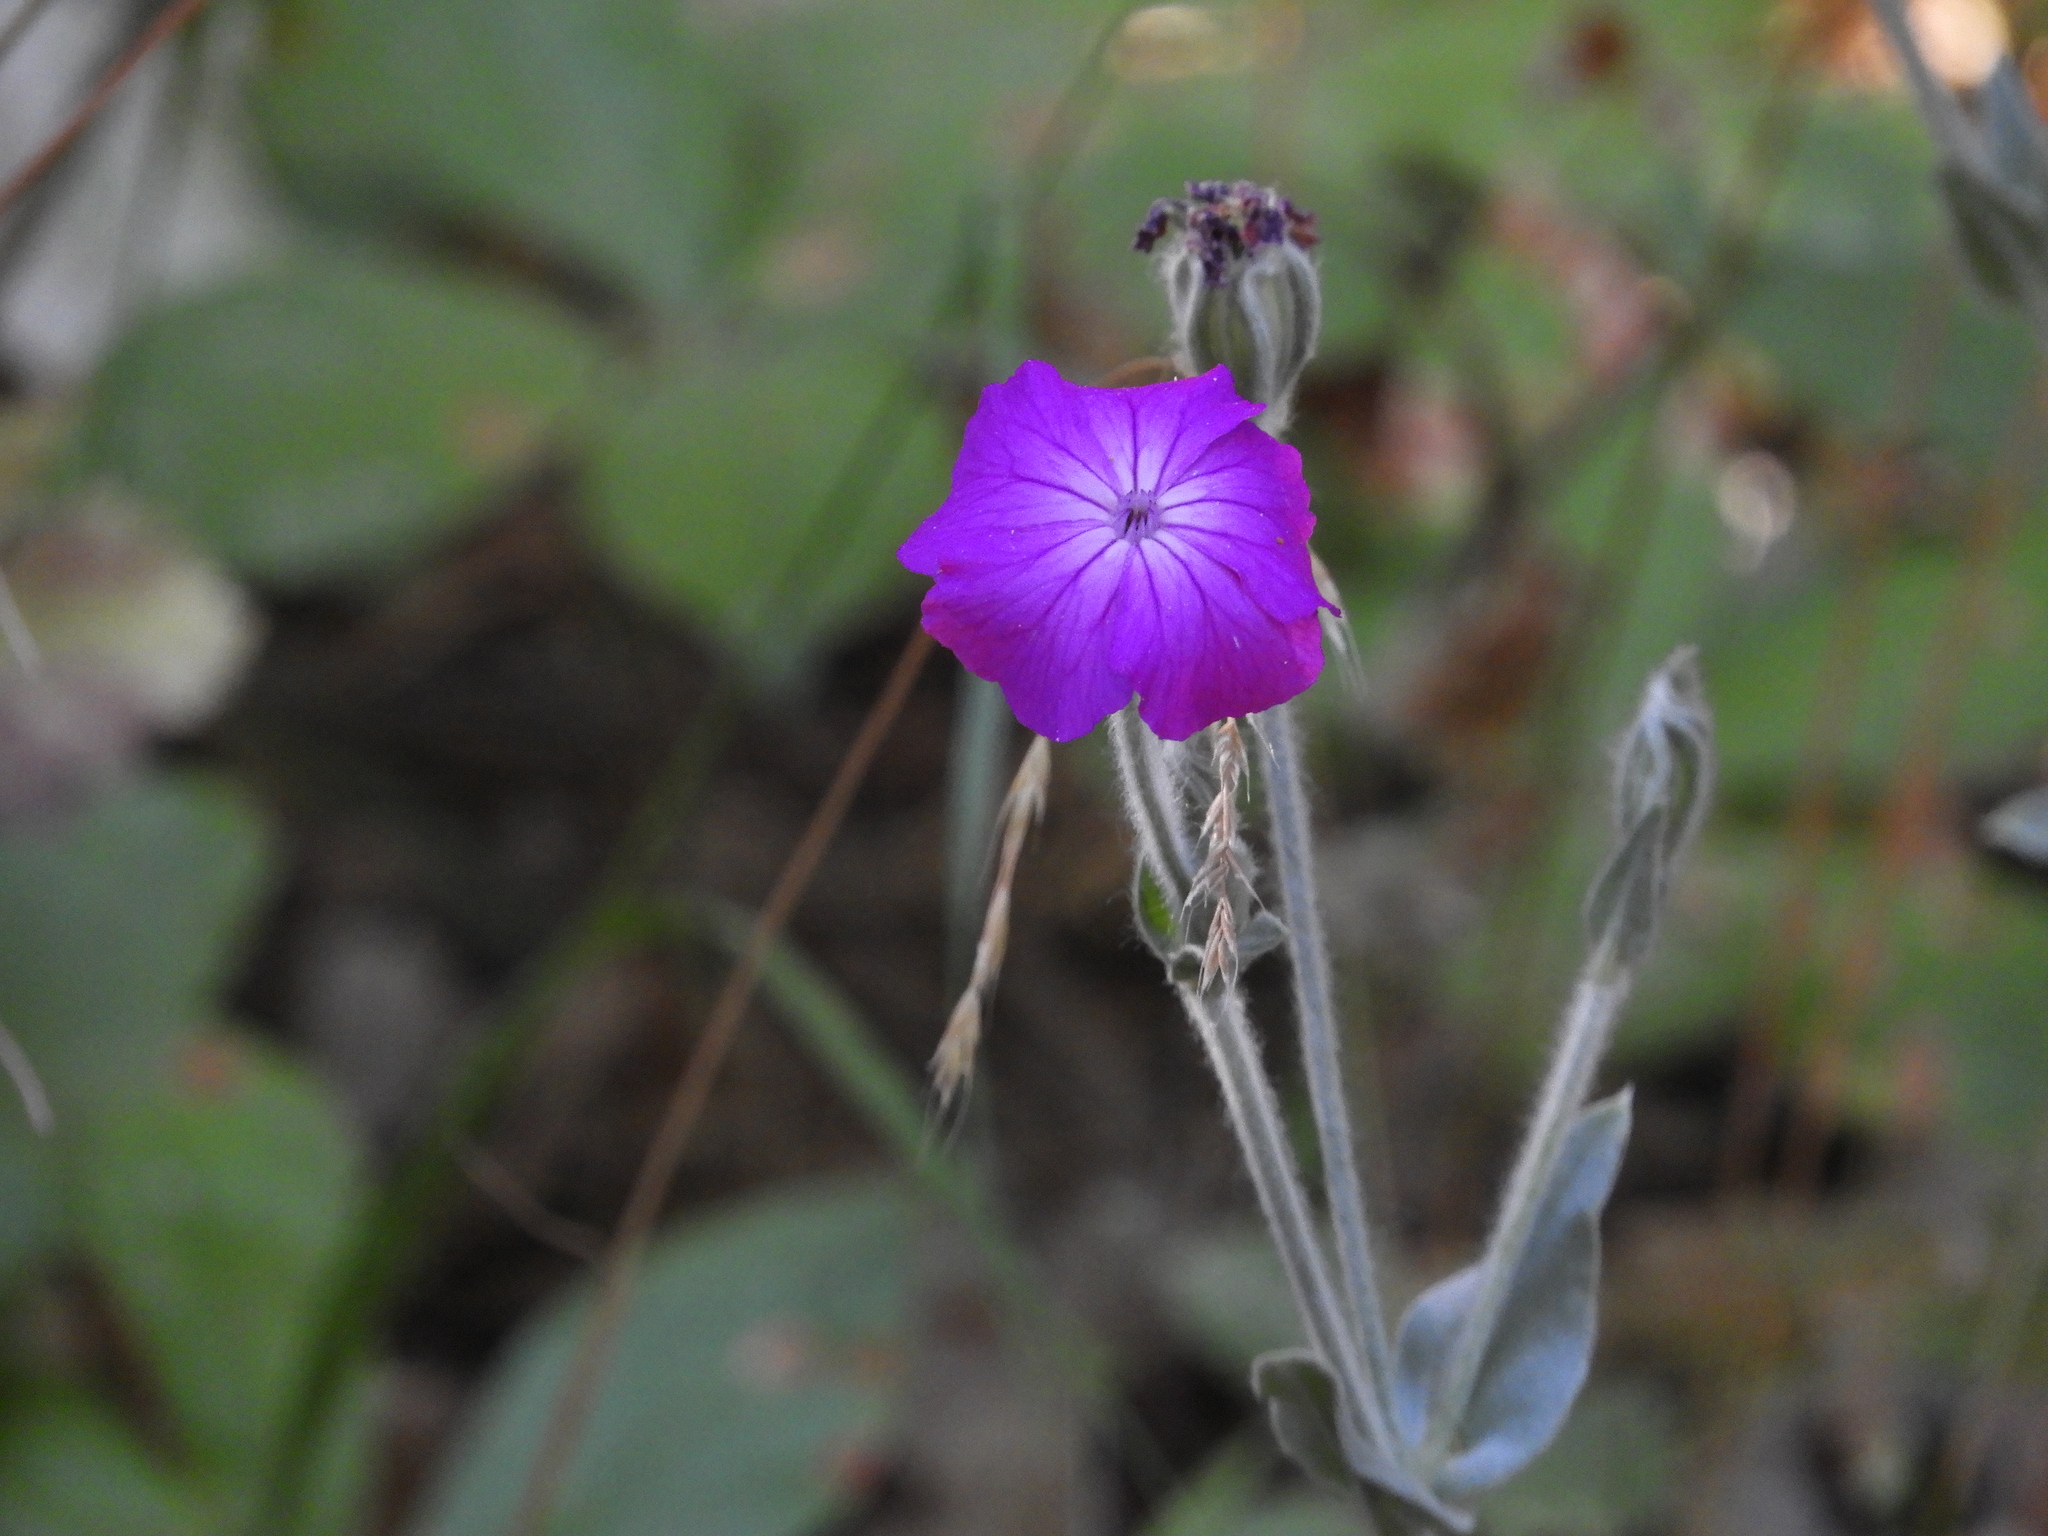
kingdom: Plantae
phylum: Tracheophyta
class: Magnoliopsida
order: Caryophyllales
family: Caryophyllaceae
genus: Silene
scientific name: Silene coronaria
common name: Rose campion
